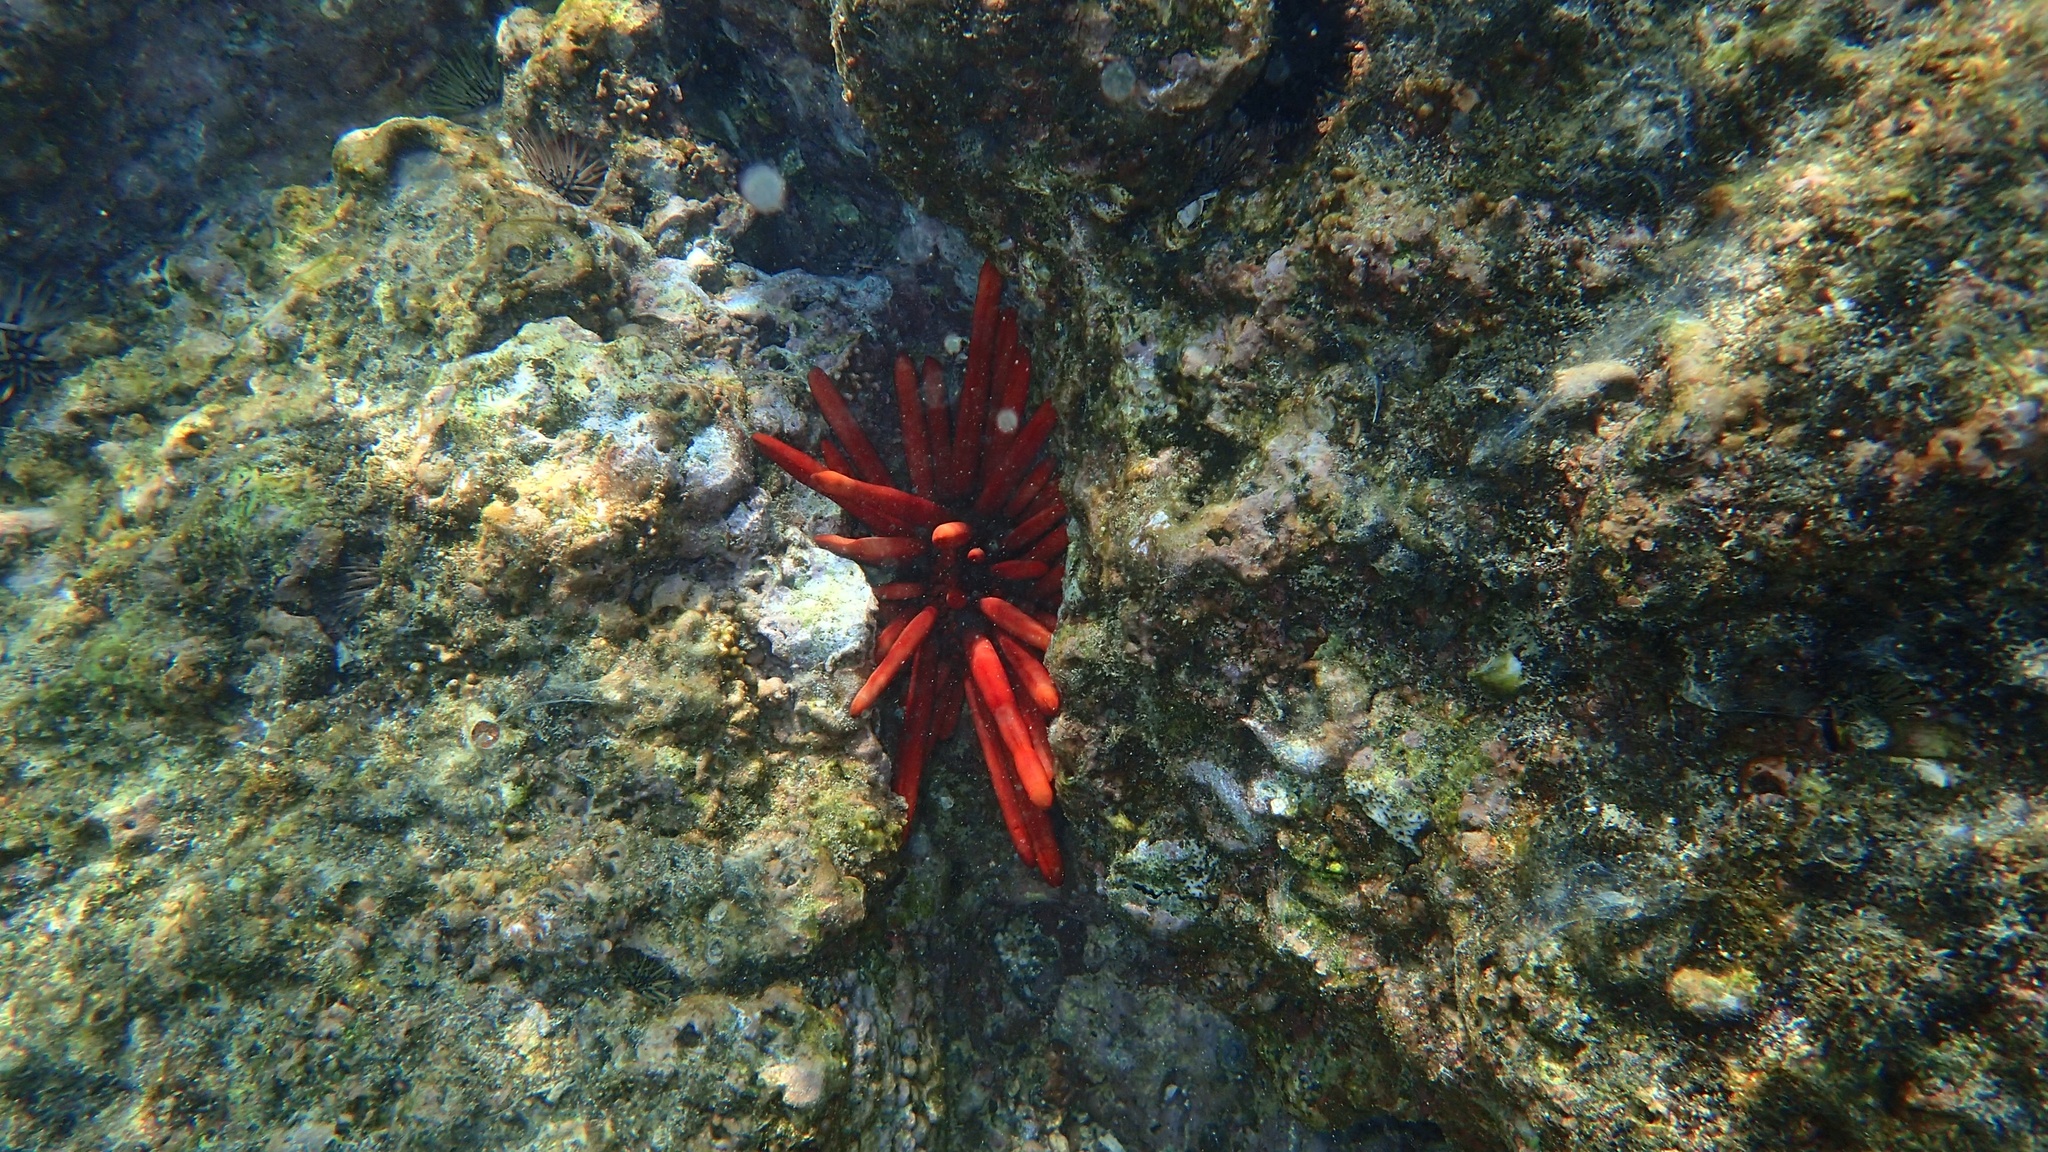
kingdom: Animalia
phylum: Echinodermata
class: Echinoidea
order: Camarodonta
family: Echinometridae
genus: Heterocentrotus
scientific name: Heterocentrotus mamillatus
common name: Slate pencil urchin
